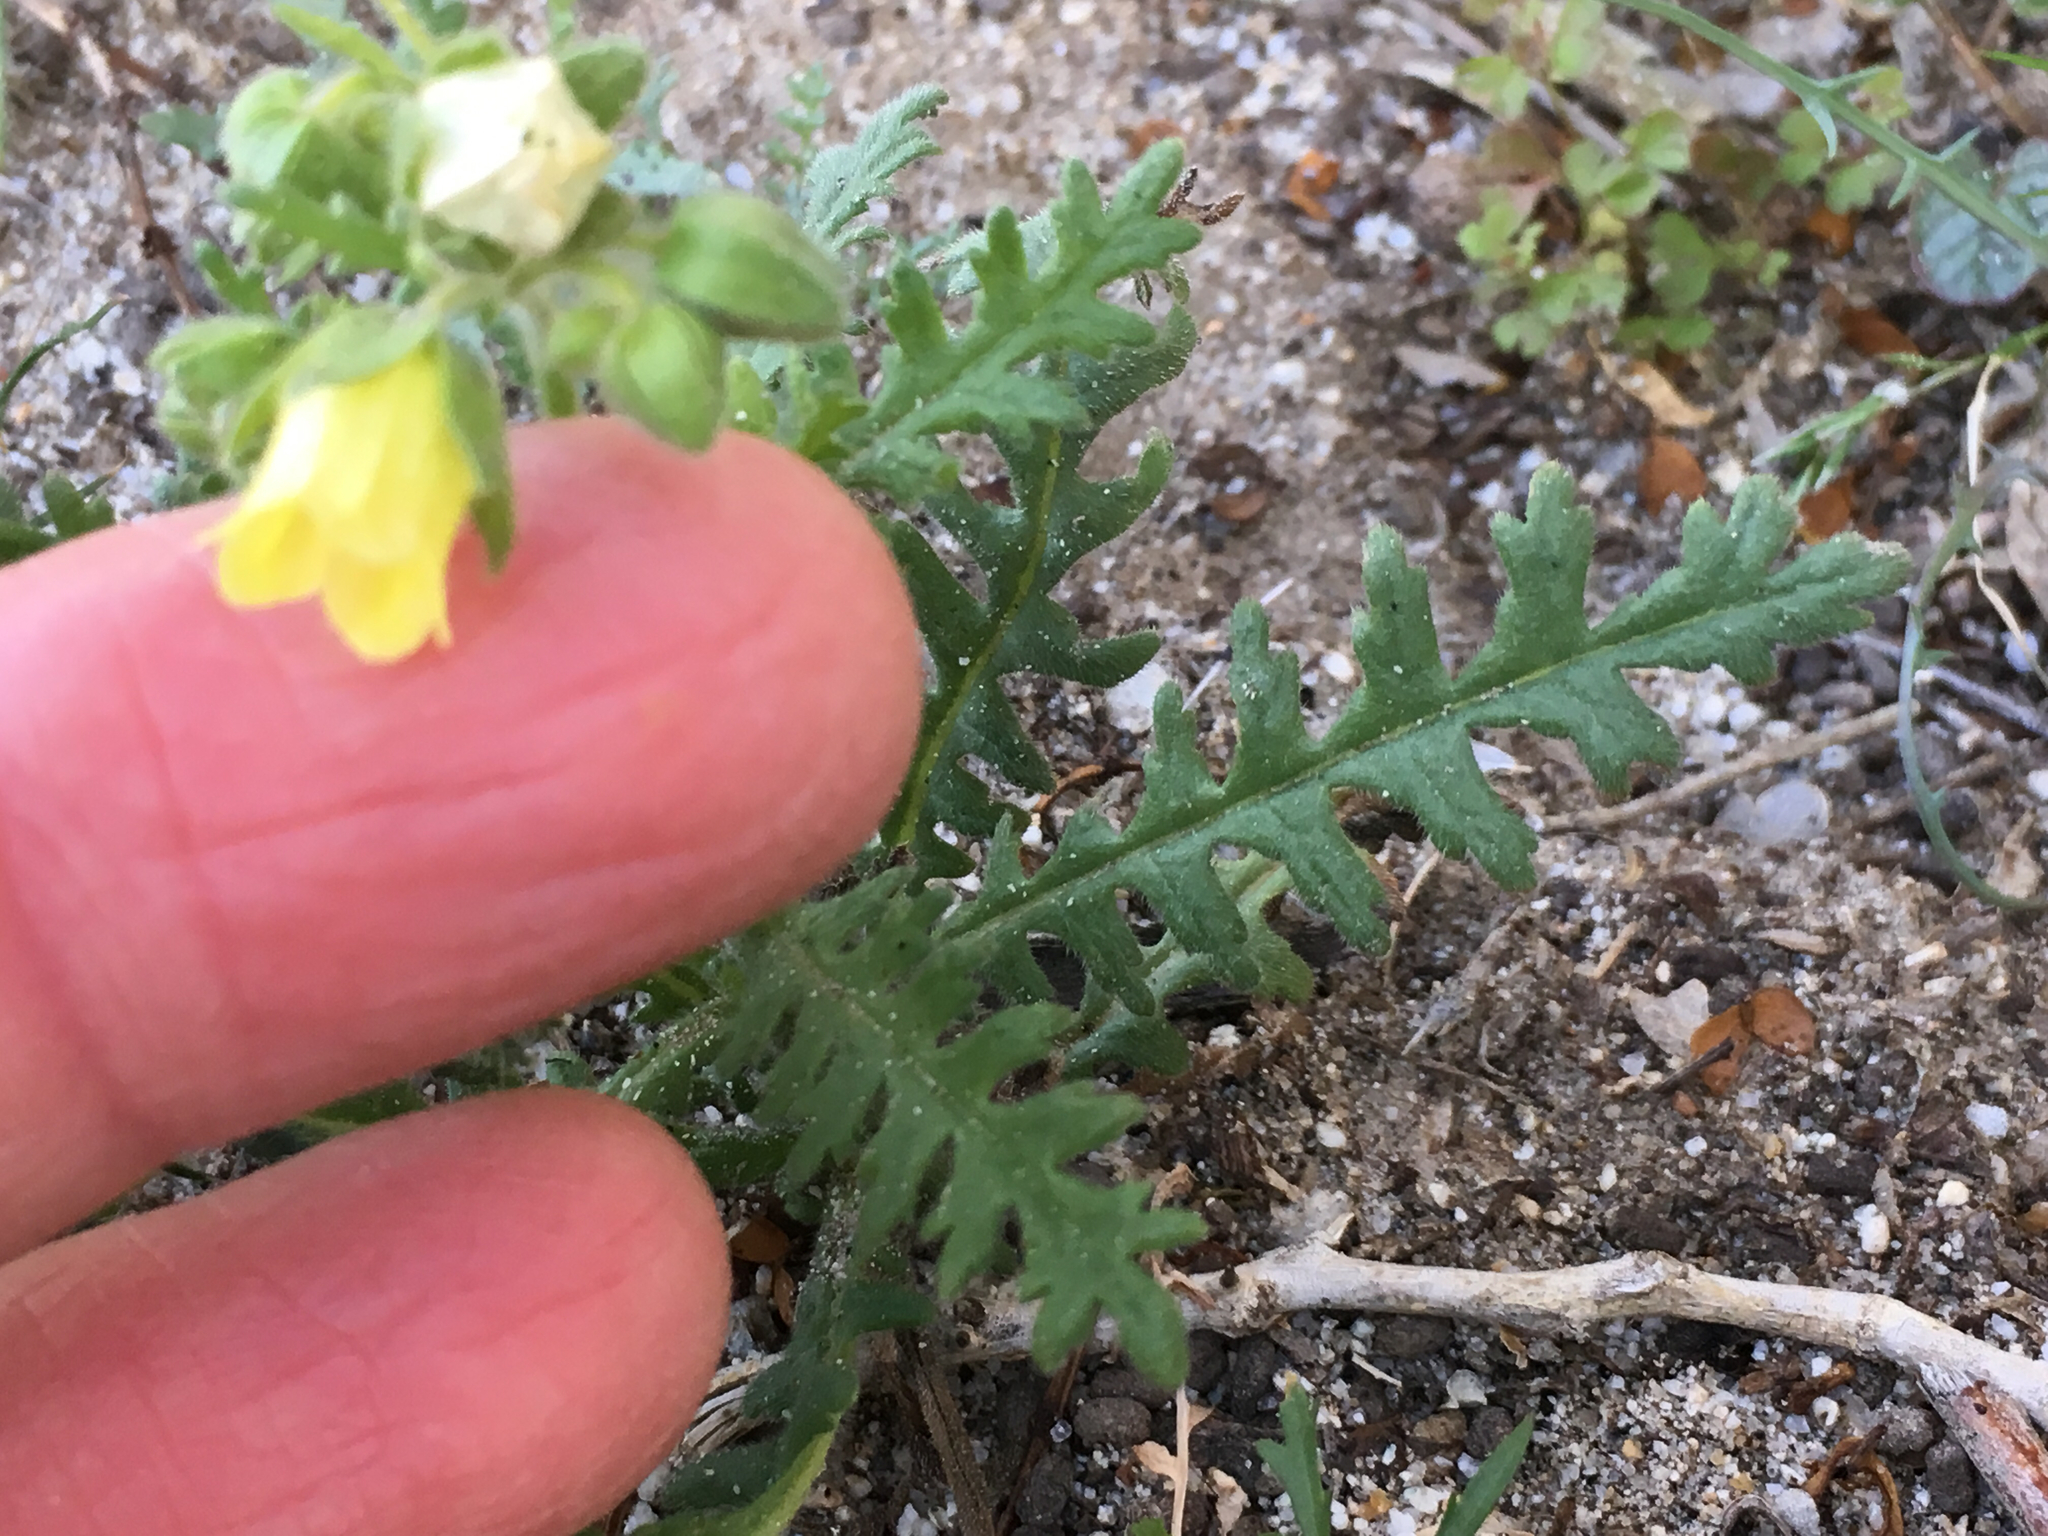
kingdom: Plantae
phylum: Tracheophyta
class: Magnoliopsida
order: Boraginales
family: Hydrophyllaceae
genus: Emmenanthe
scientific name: Emmenanthe penduliflora
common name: Whispering-bells
